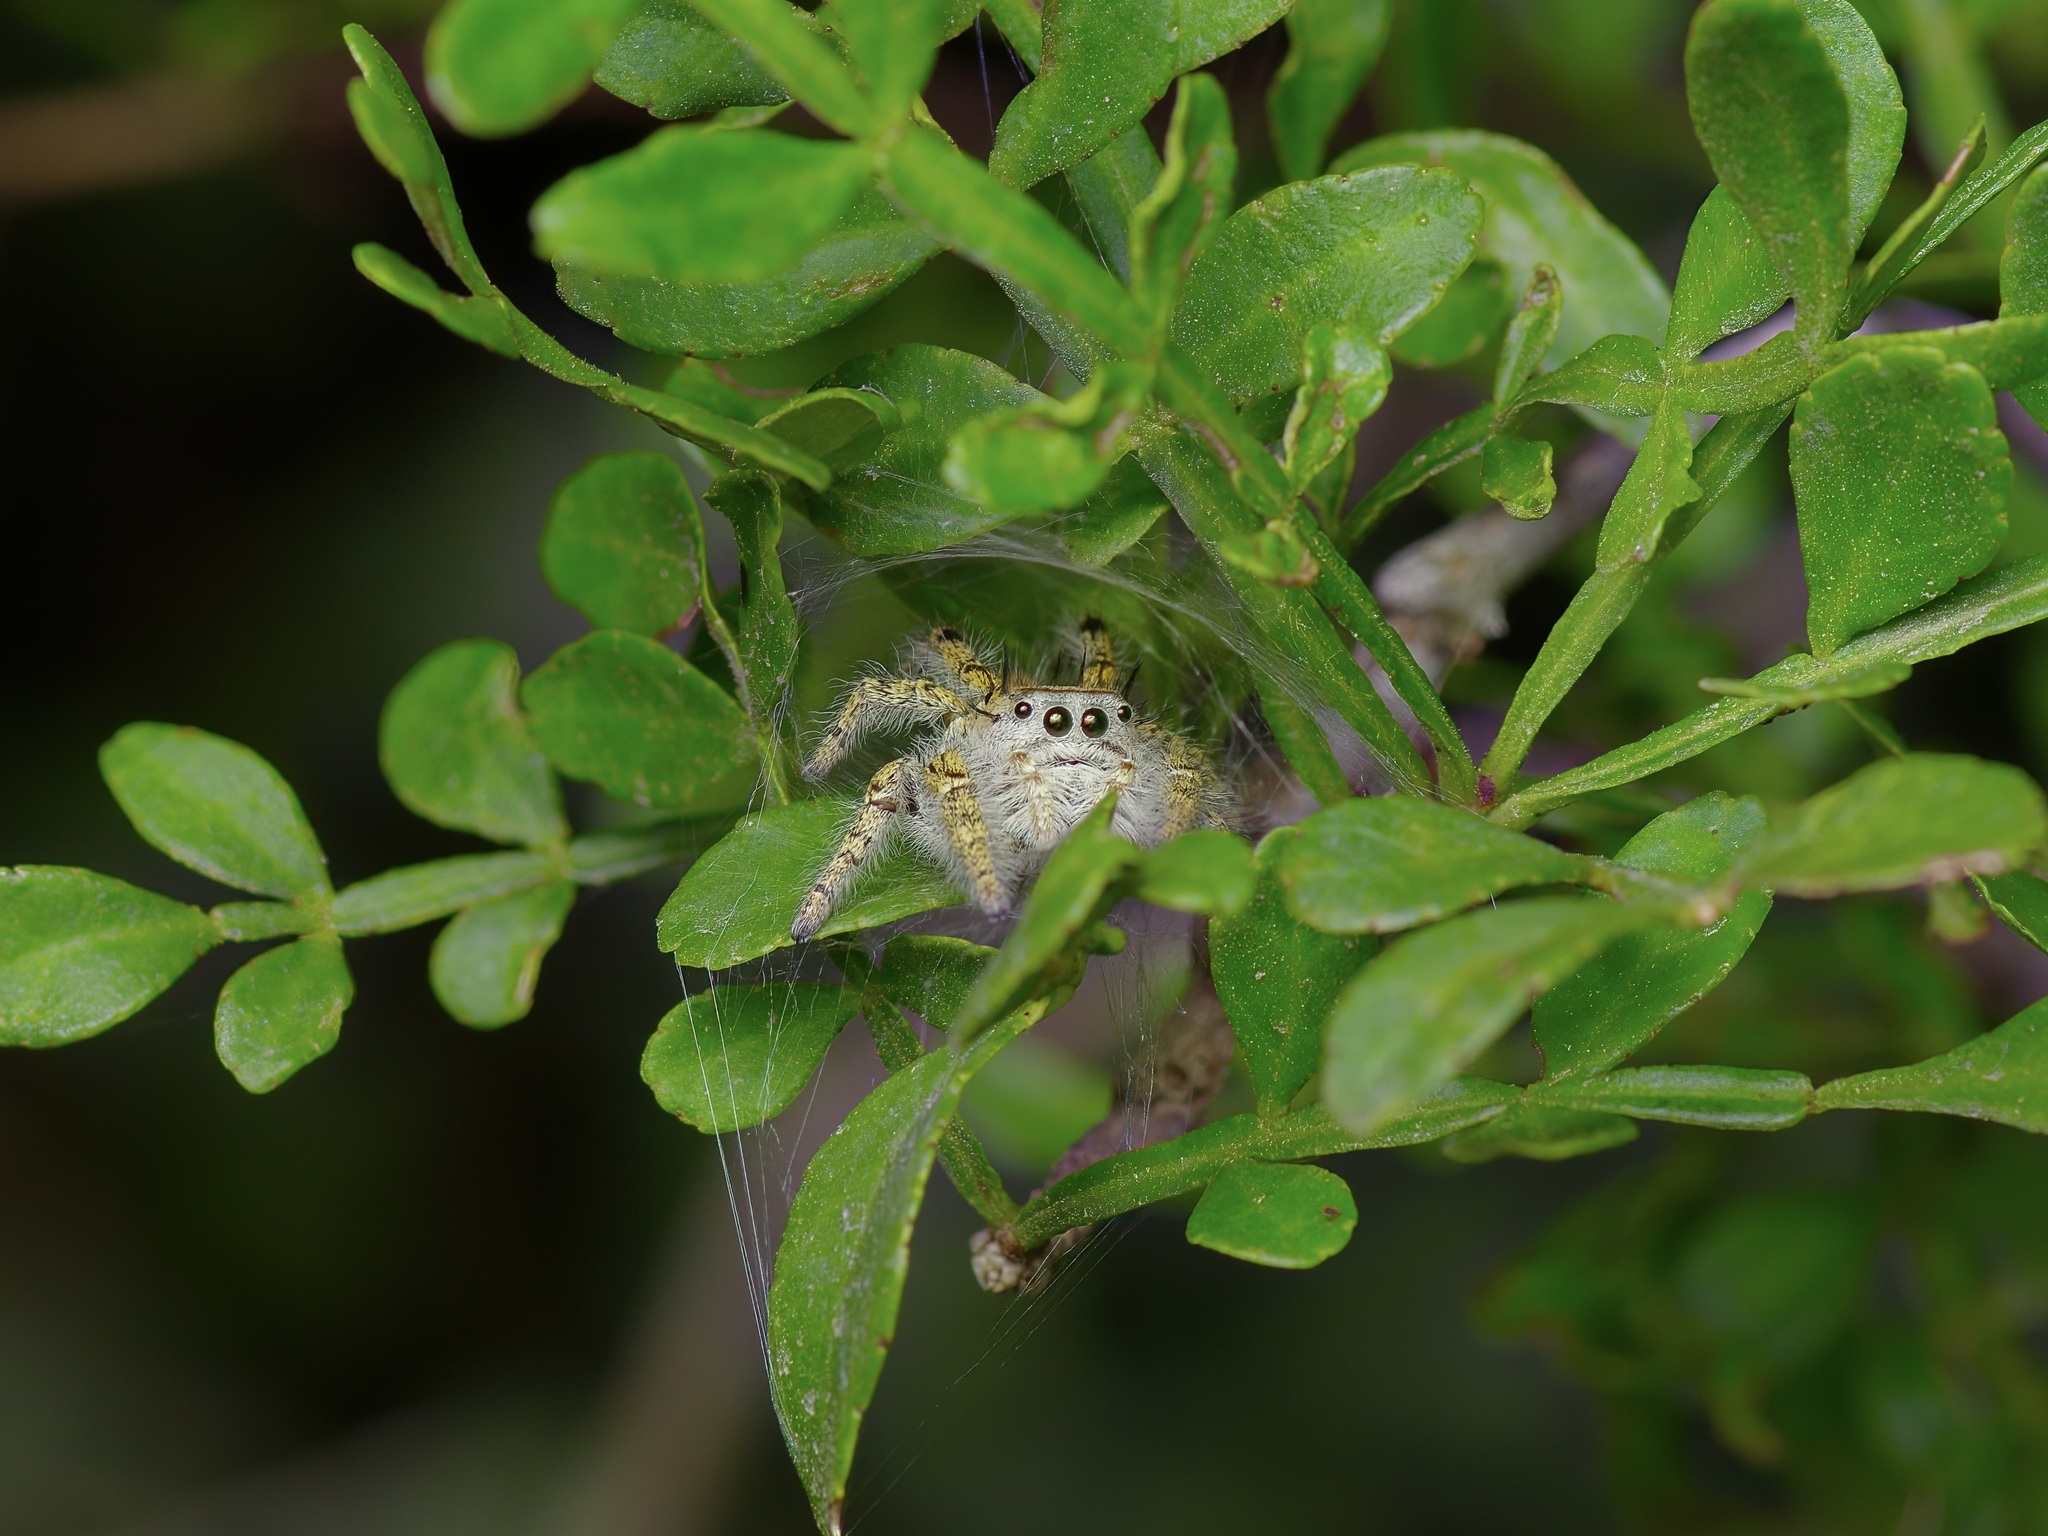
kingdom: Animalia
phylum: Arthropoda
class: Arachnida
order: Araneae
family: Salticidae
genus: Phidippus
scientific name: Phidippus carolinensis
